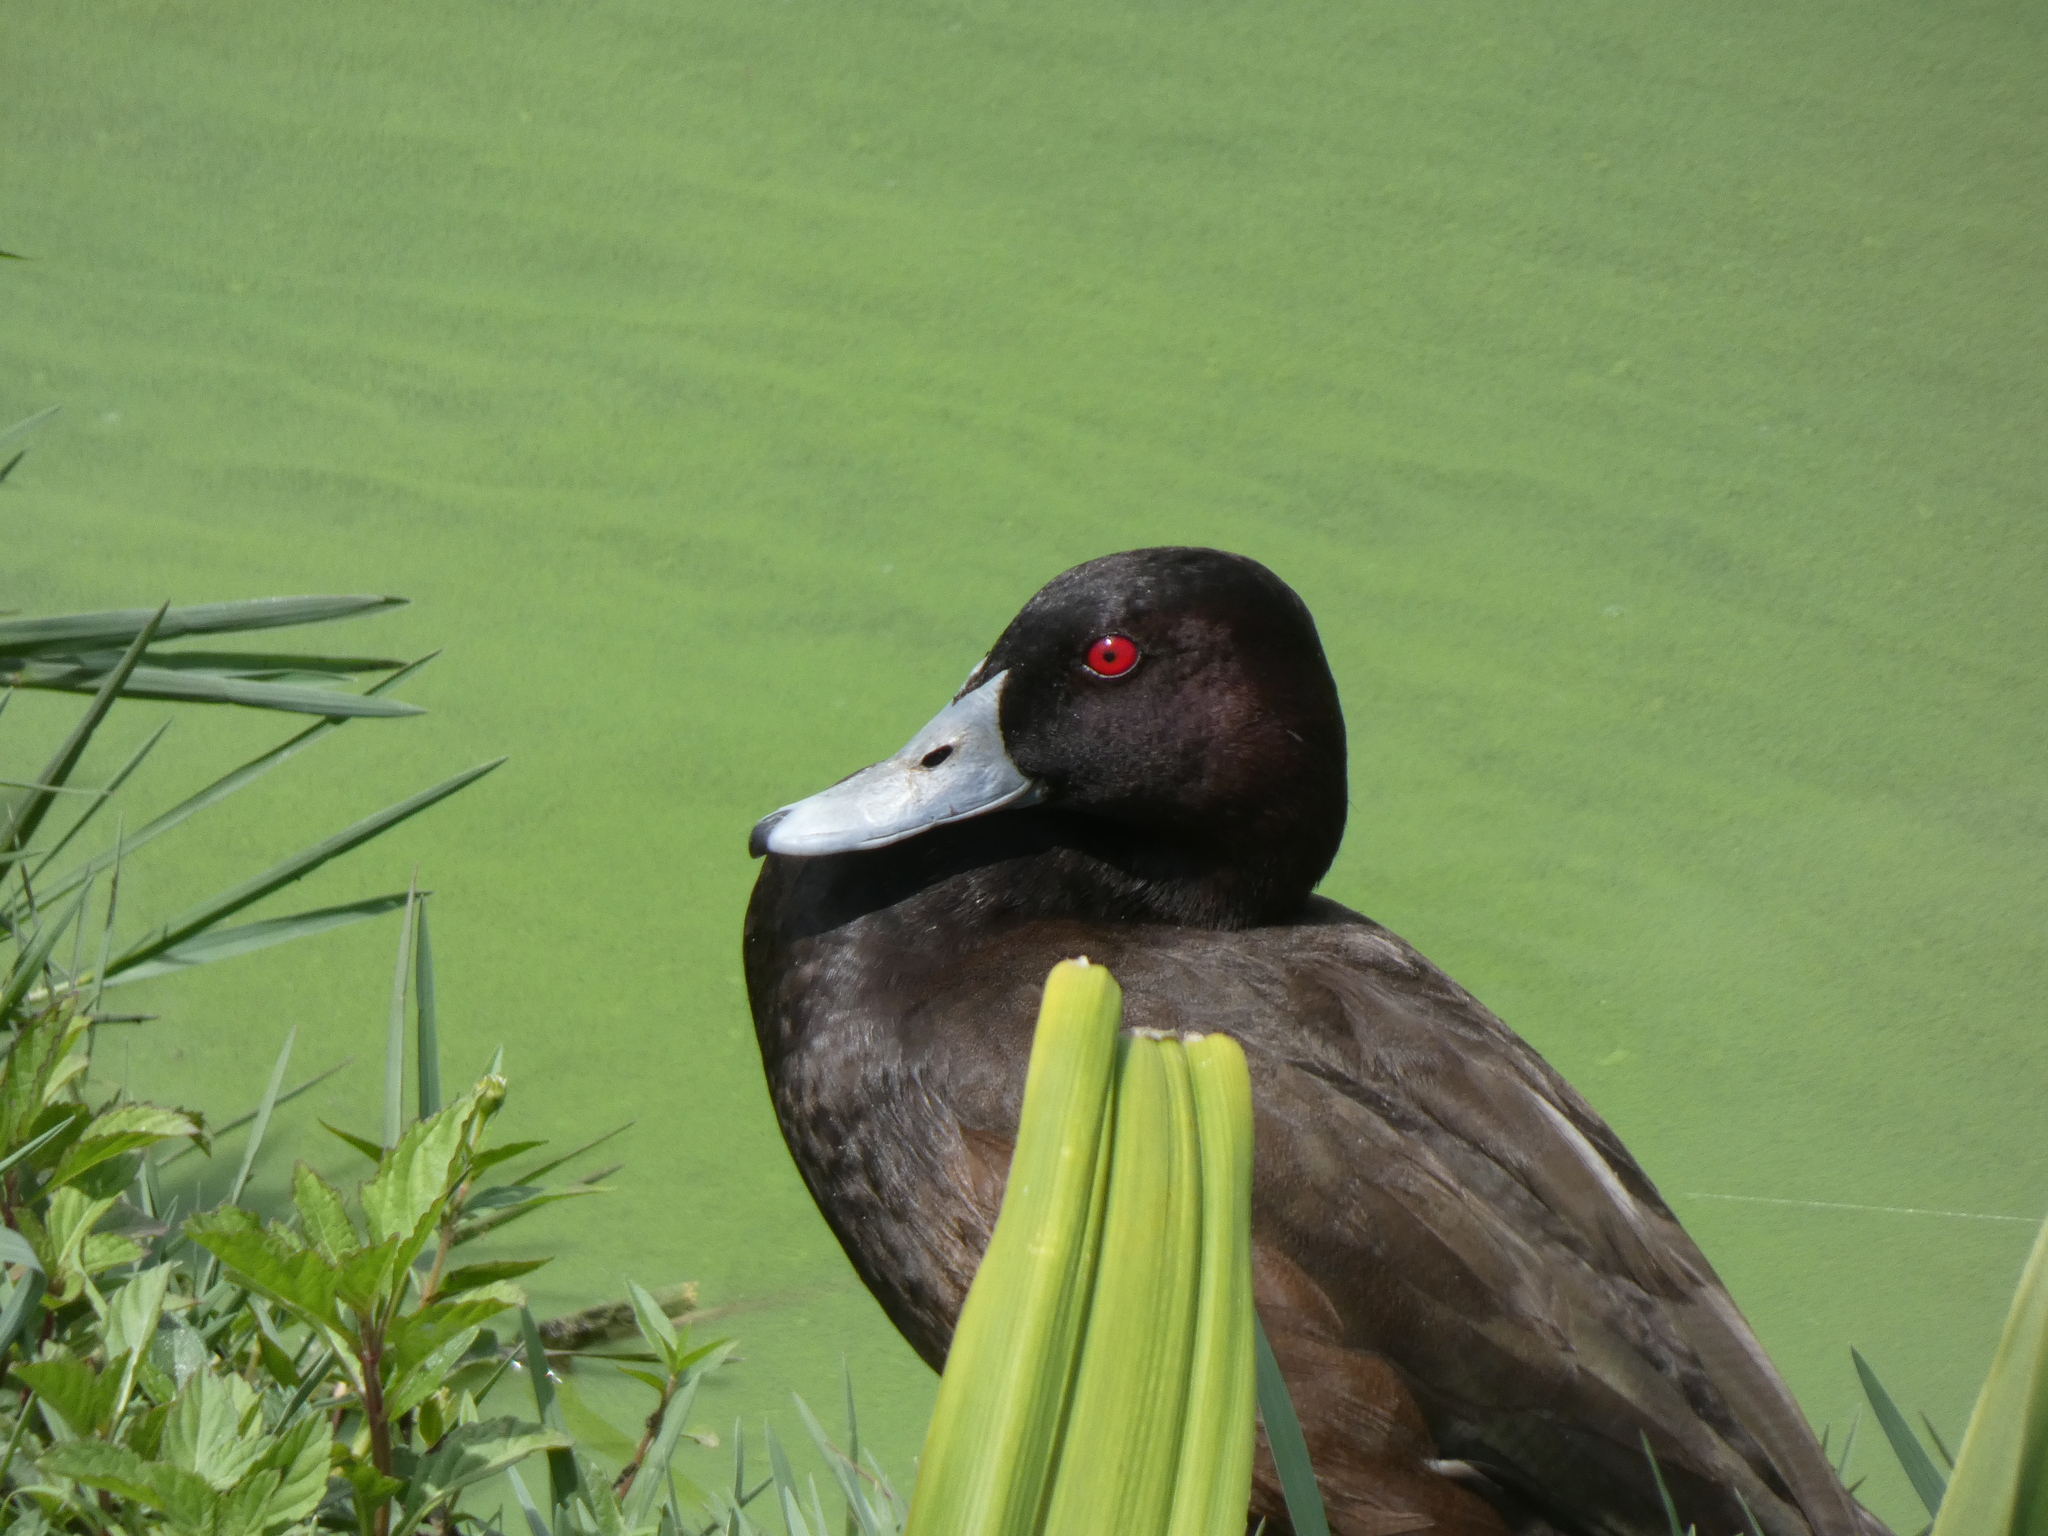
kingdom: Animalia
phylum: Chordata
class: Aves
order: Anseriformes
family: Anatidae
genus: Netta
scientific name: Netta erythrophthalma
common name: Southern pochard
